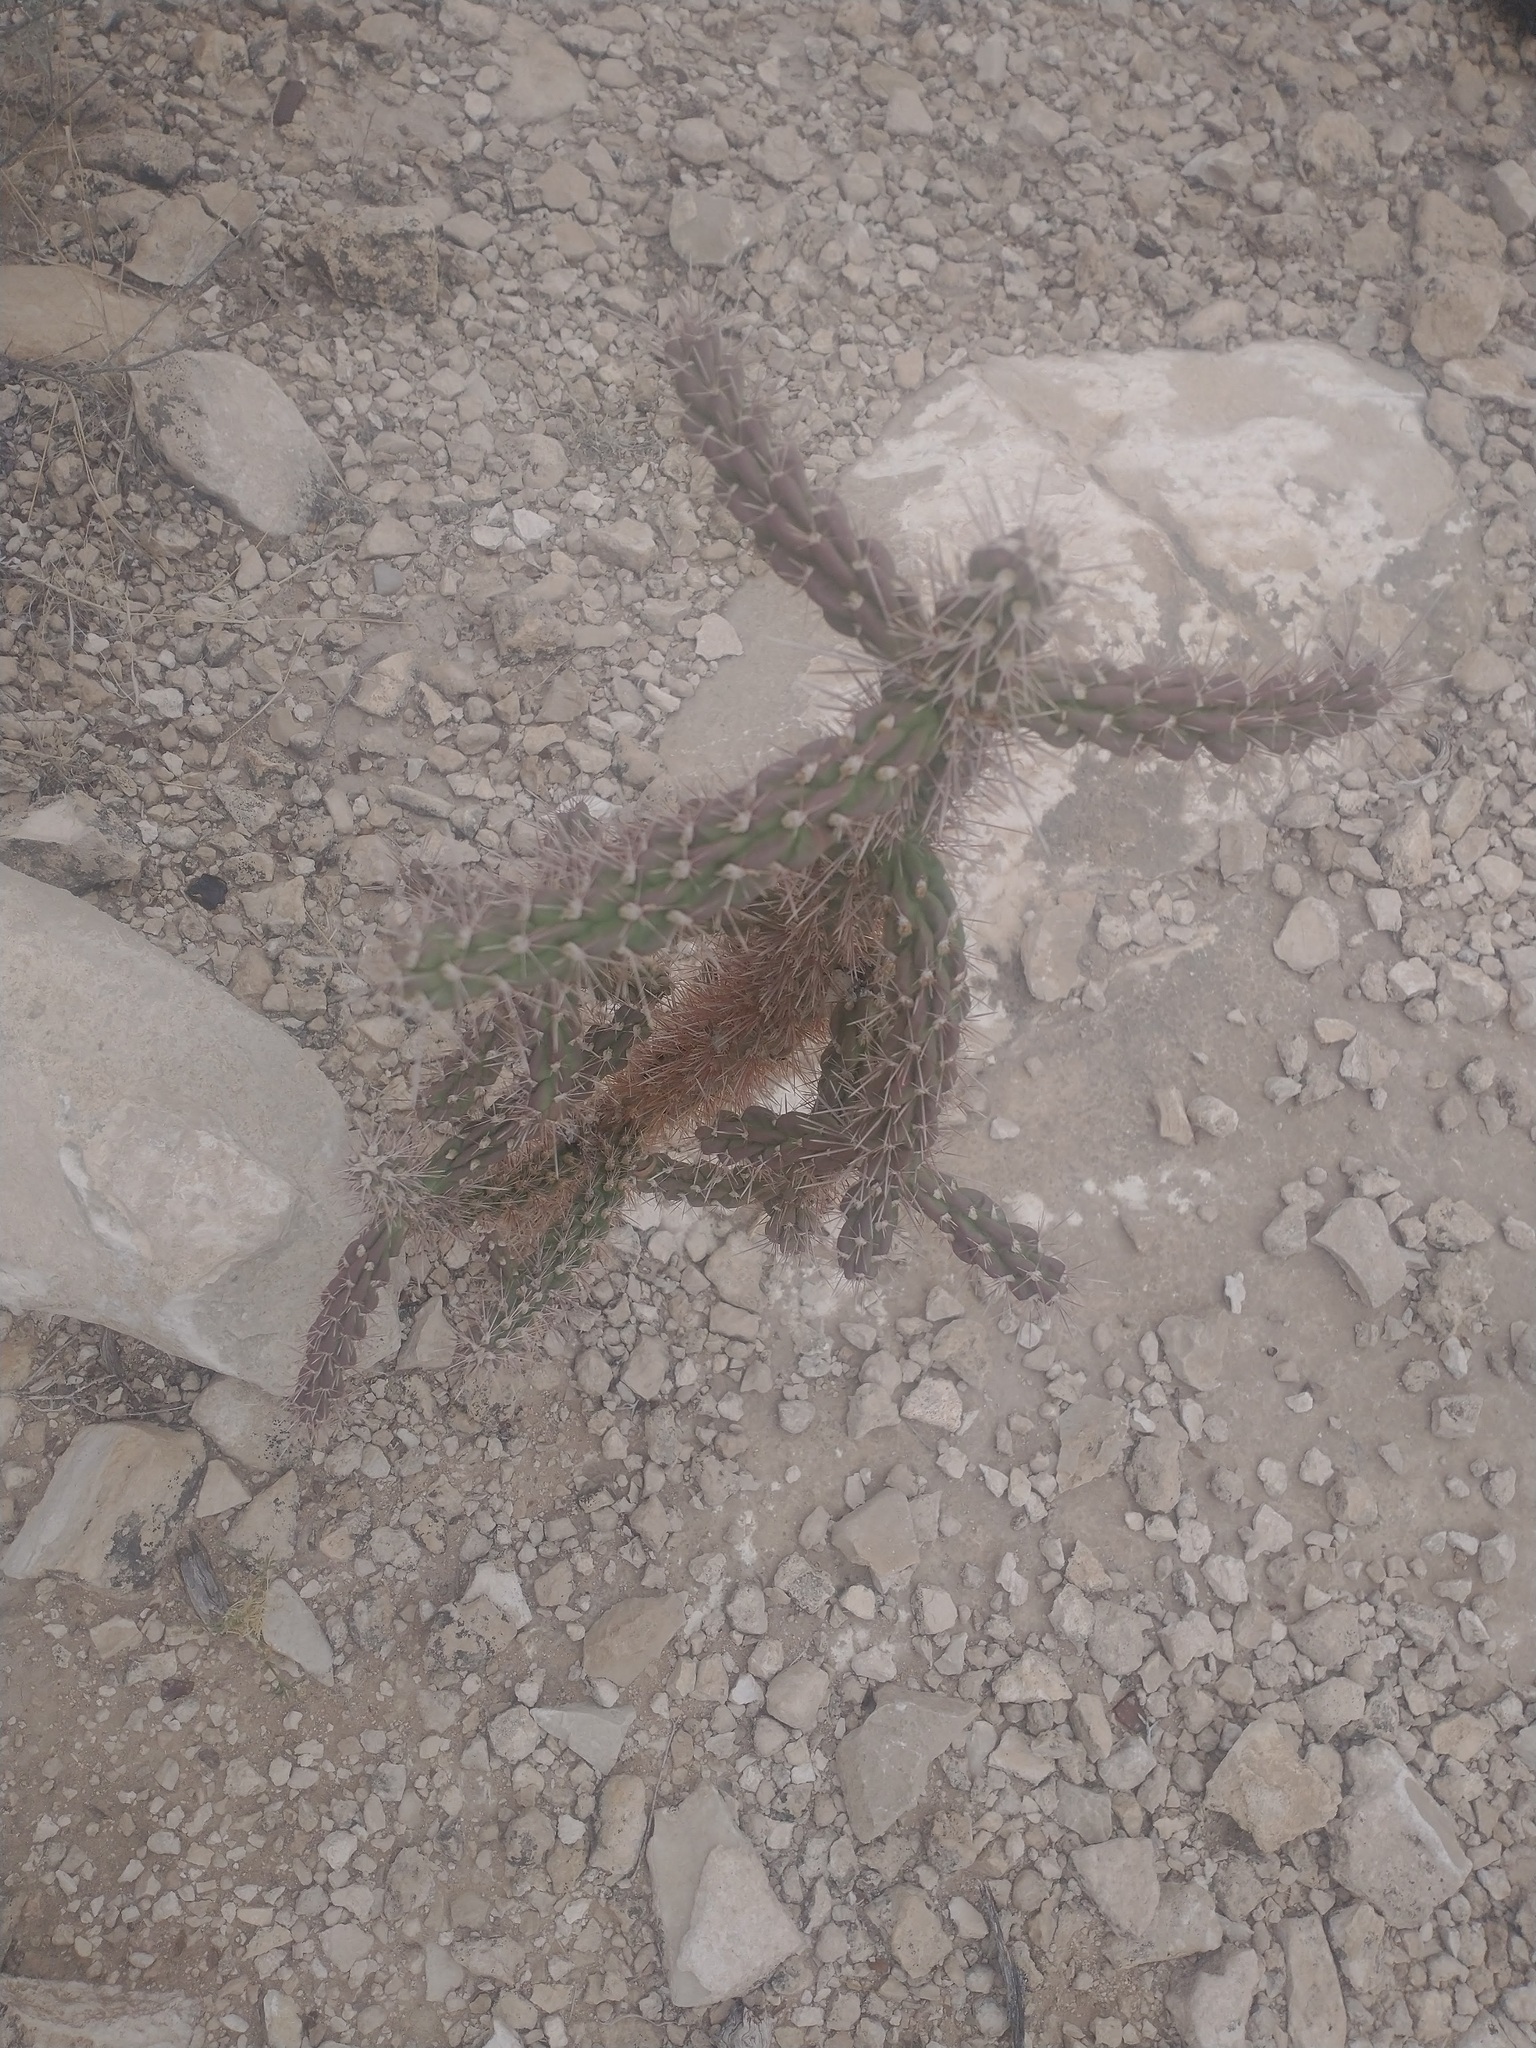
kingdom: Plantae
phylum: Tracheophyta
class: Magnoliopsida
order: Caryophyllales
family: Cactaceae
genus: Cylindropuntia
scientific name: Cylindropuntia imbricata
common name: Candelabrum cactus
